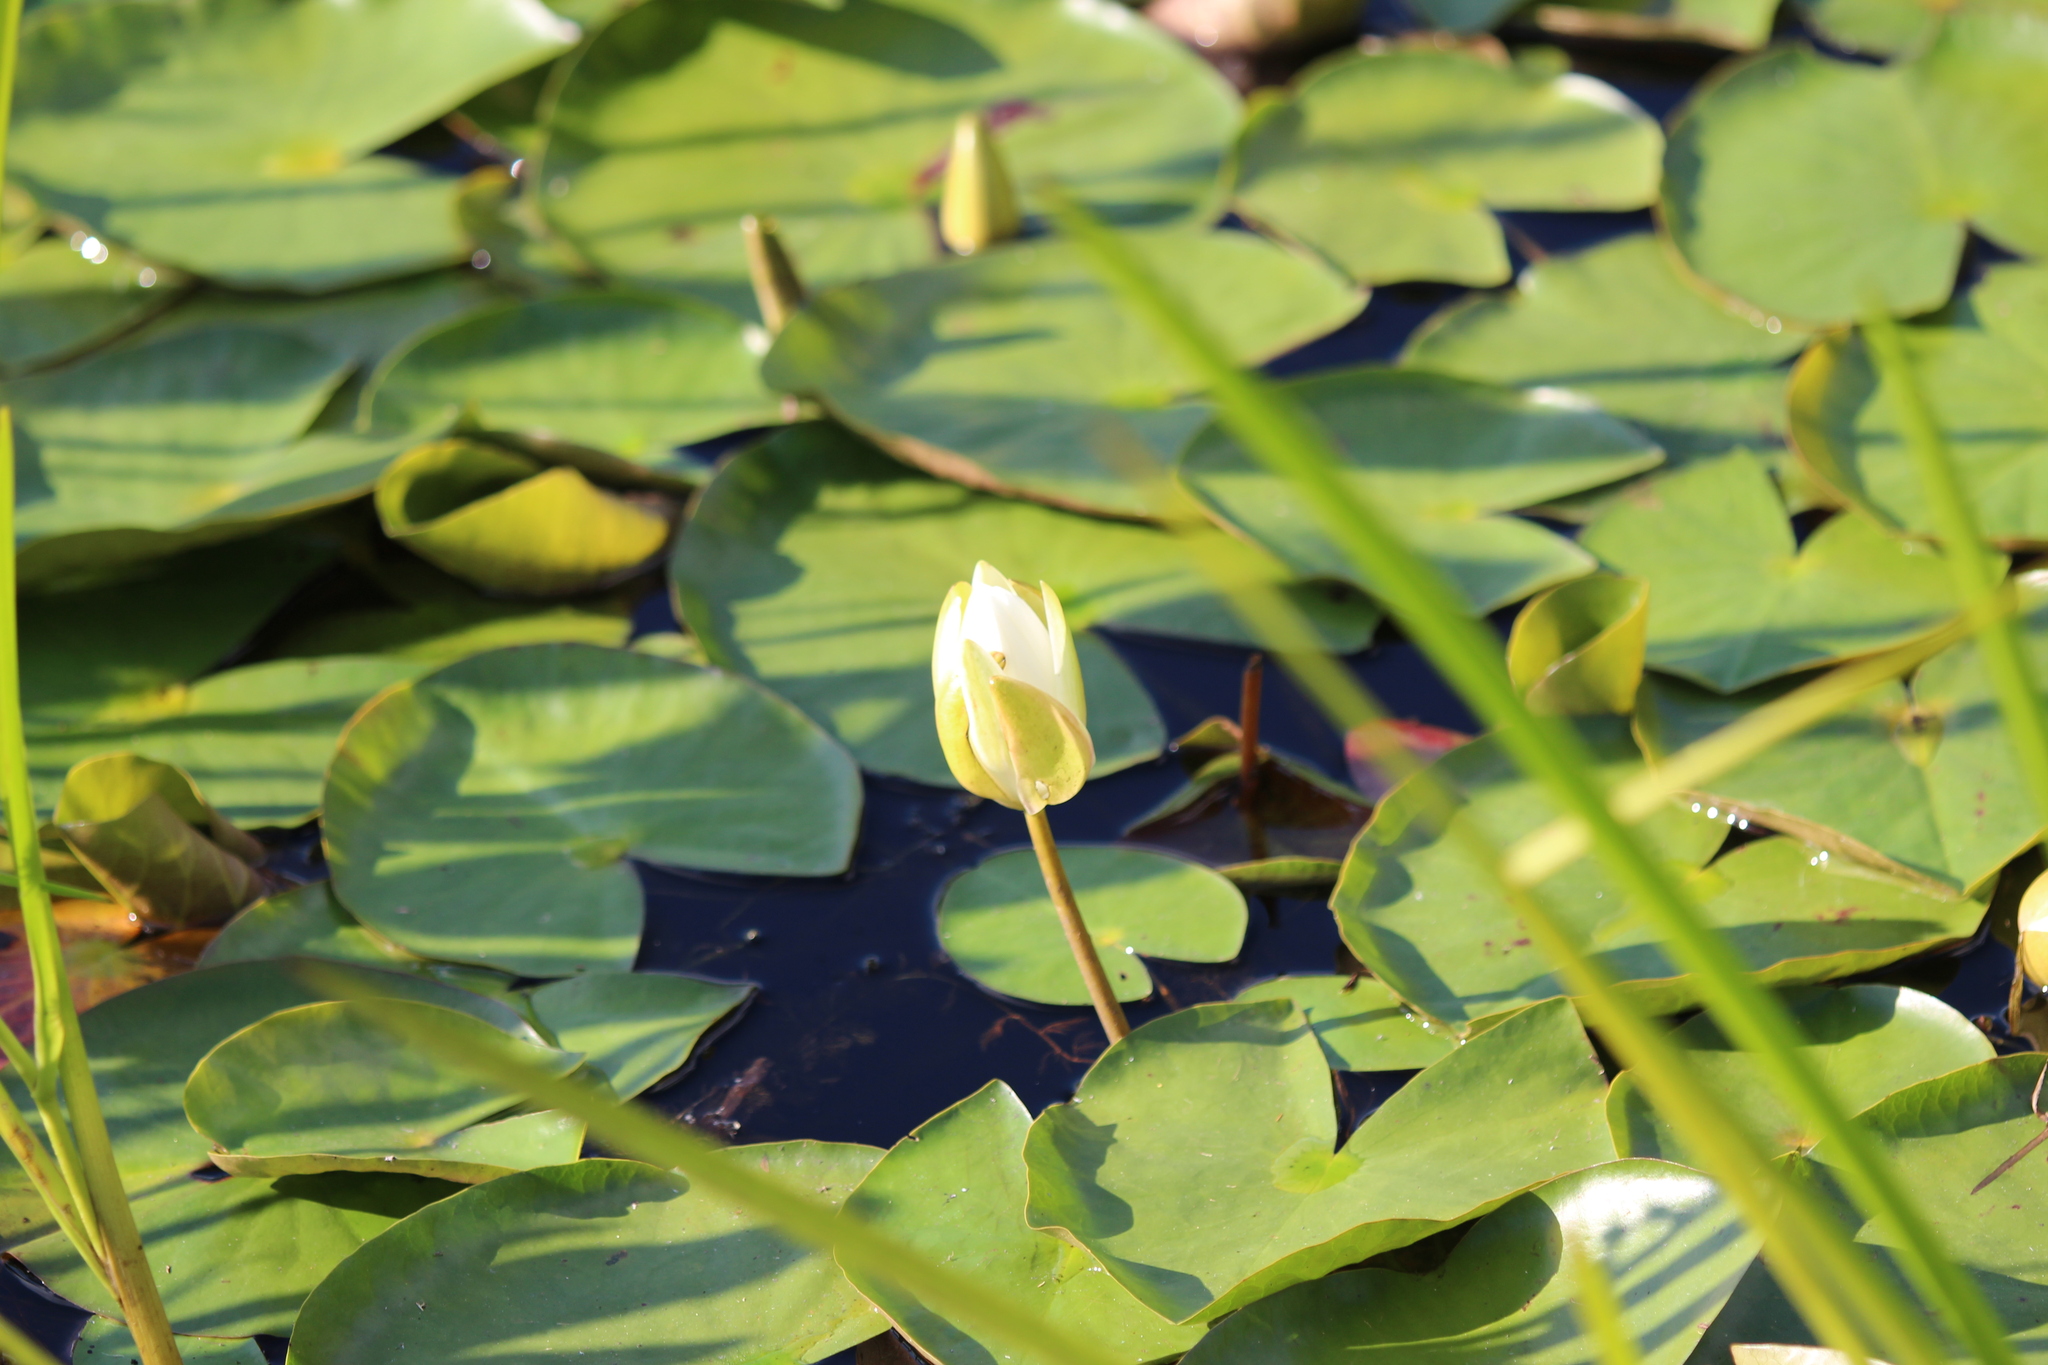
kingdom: Plantae
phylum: Tracheophyta
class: Magnoliopsida
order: Nymphaeales
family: Nymphaeaceae
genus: Nymphaea
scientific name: Nymphaea odorata
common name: Fragrant water-lily
